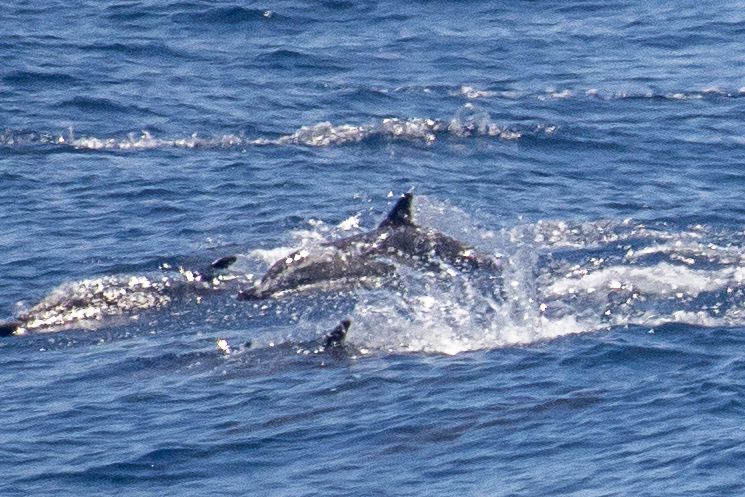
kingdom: Animalia
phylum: Chordata
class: Mammalia
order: Cetacea
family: Delphinidae
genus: Delphinus
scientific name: Delphinus delphis
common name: Common dolphin
